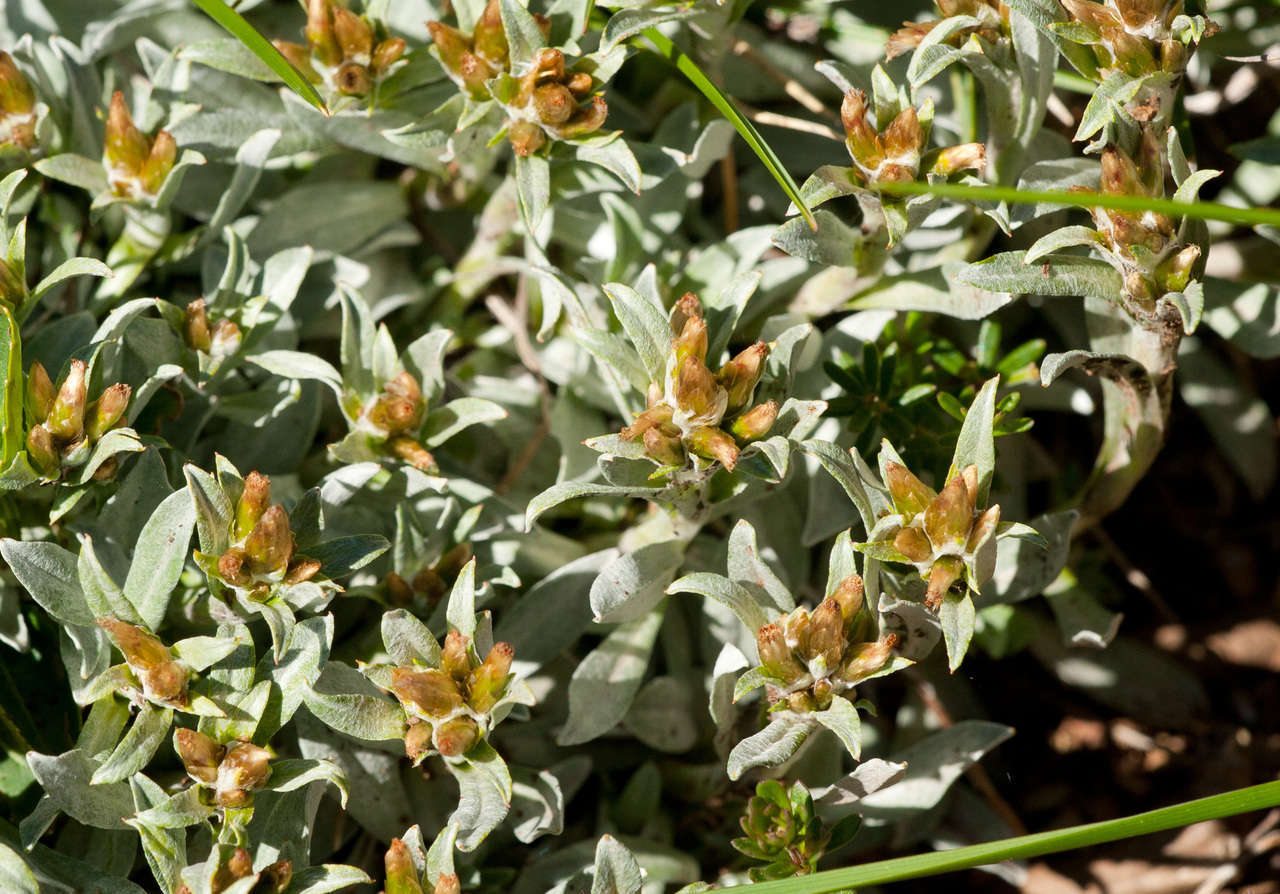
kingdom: Plantae
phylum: Tracheophyta
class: Magnoliopsida
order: Asterales
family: Asteraceae
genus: Argyrotegium
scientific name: Argyrotegium fordianum
